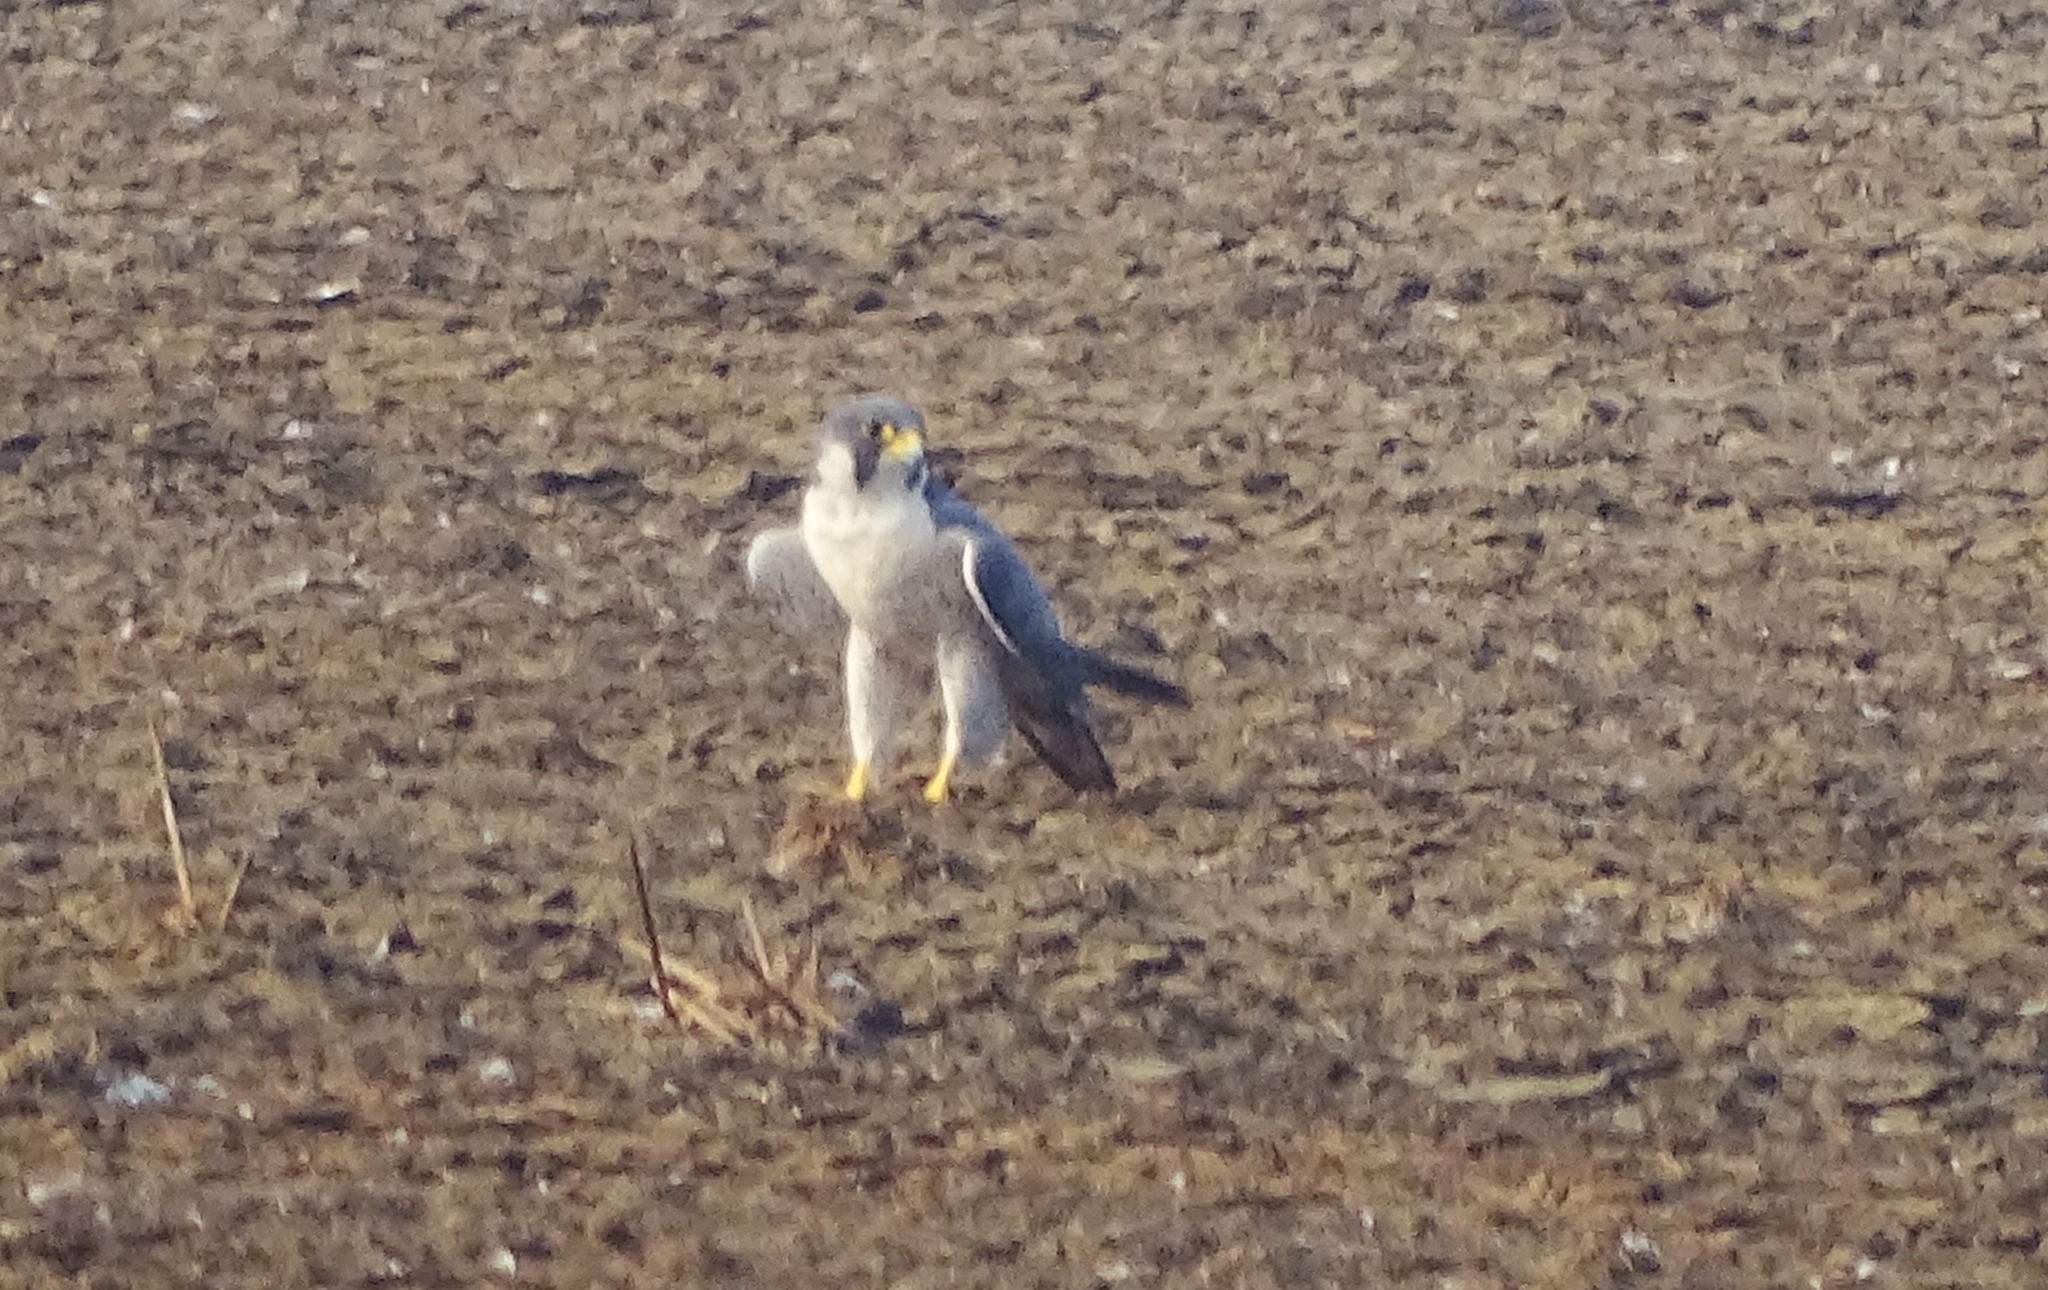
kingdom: Animalia
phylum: Chordata
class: Aves
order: Falconiformes
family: Falconidae
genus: Falco
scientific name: Falco peregrinus
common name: Peregrine falcon
